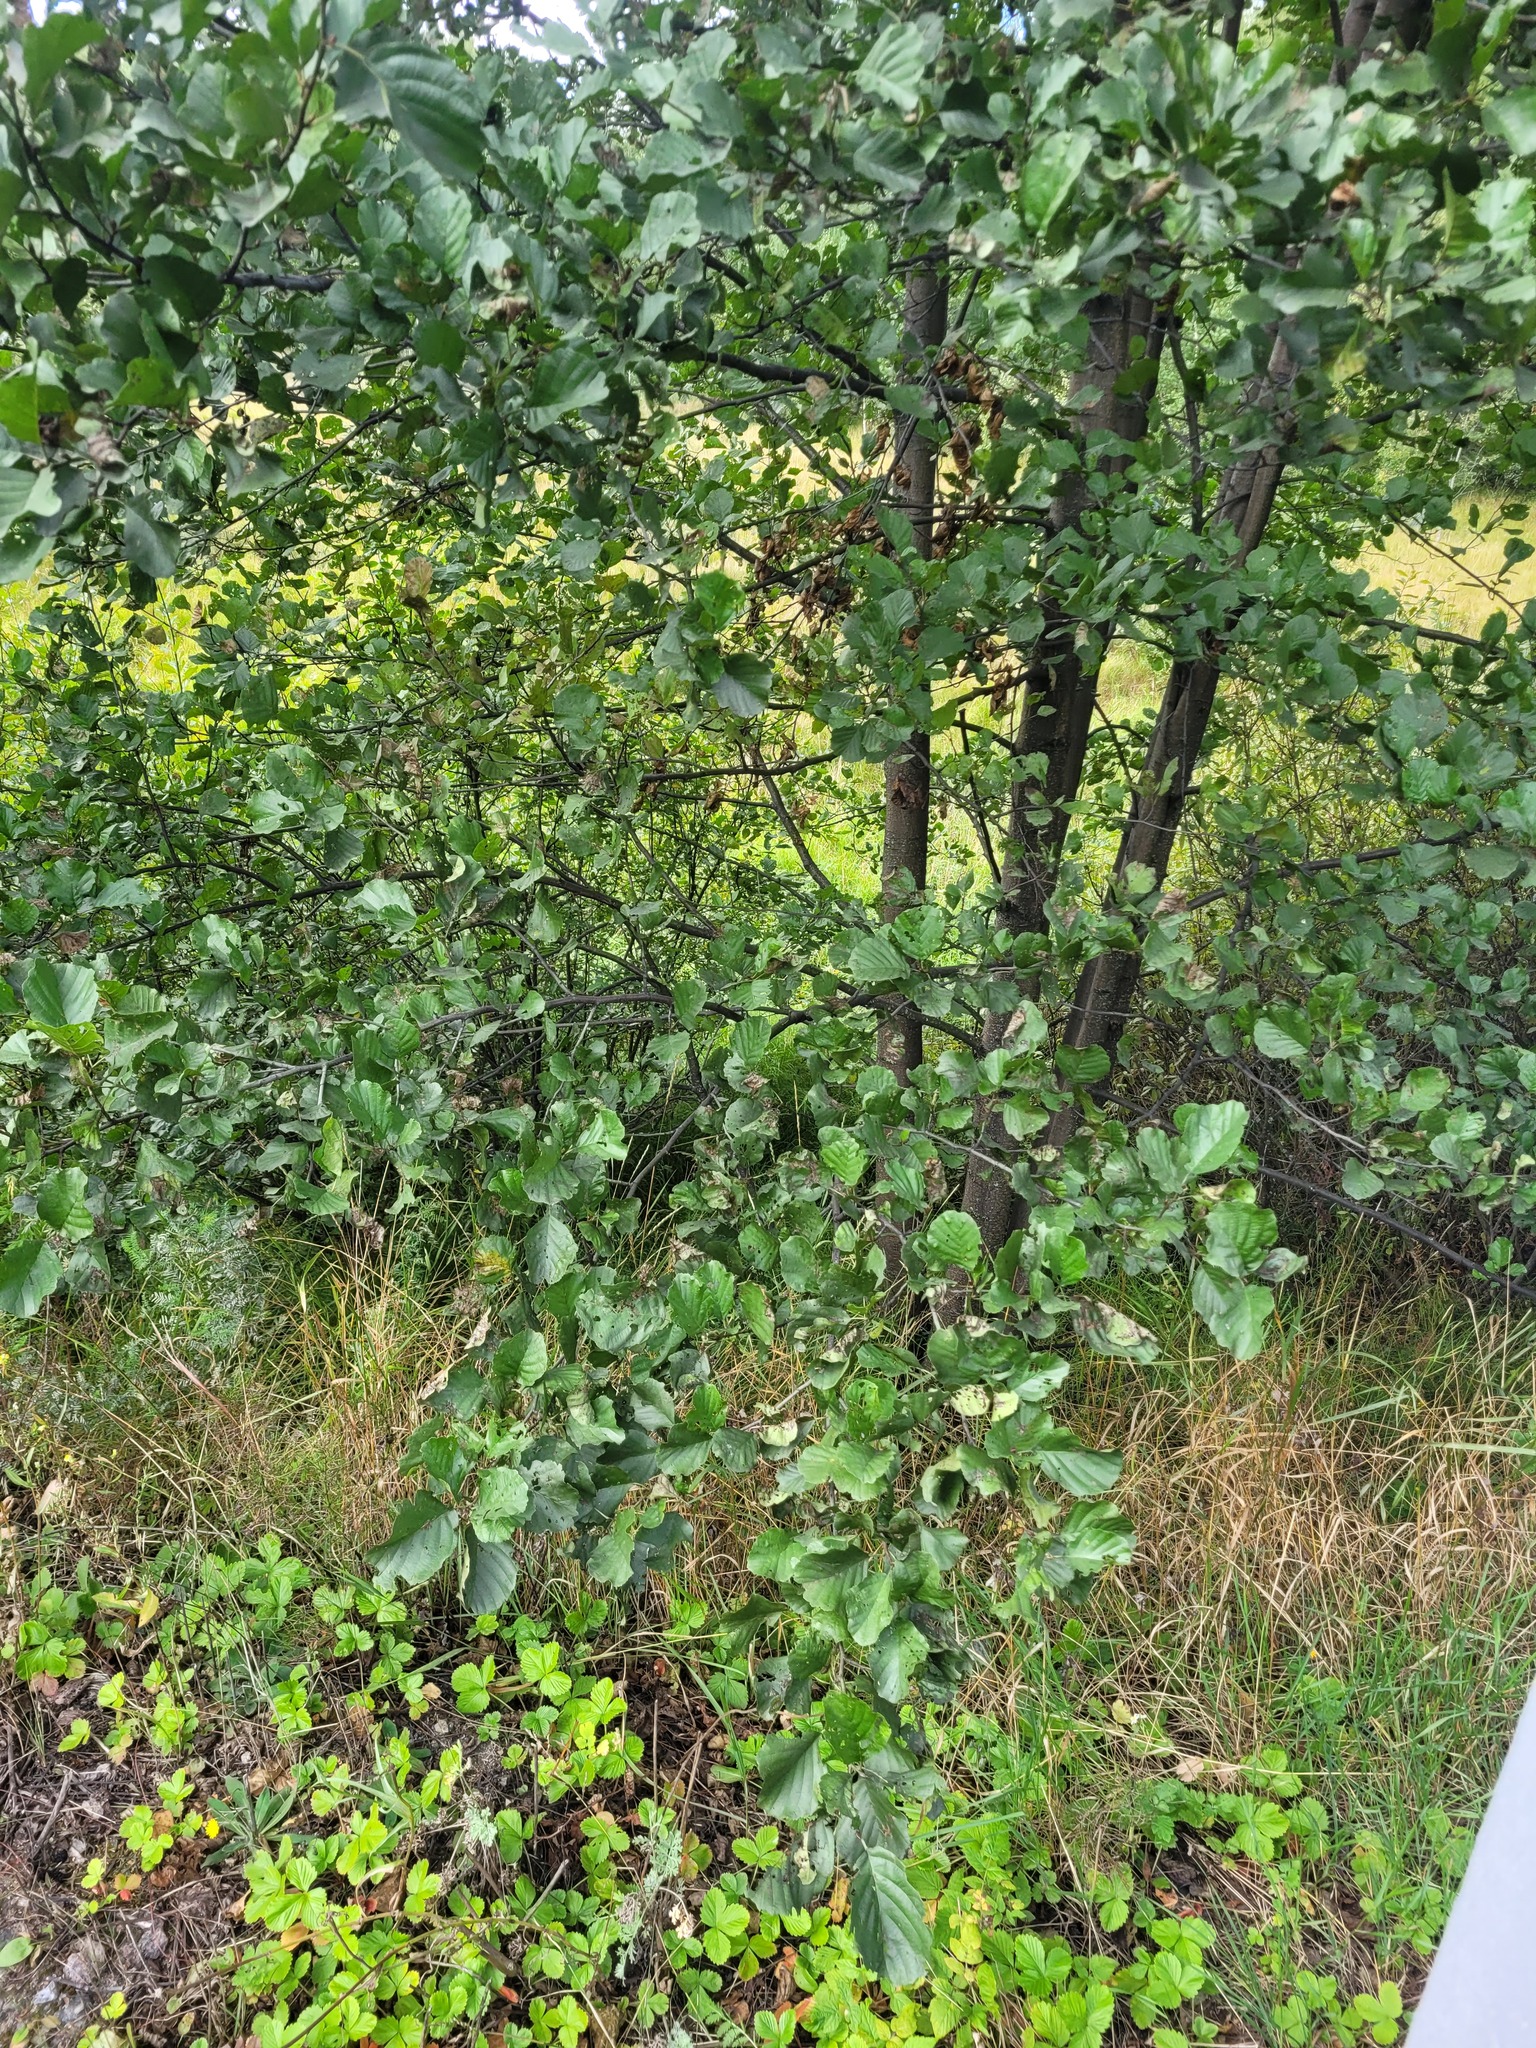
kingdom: Plantae
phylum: Tracheophyta
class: Magnoliopsida
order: Fagales
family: Betulaceae
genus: Alnus
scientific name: Alnus glutinosa
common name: Black alder
